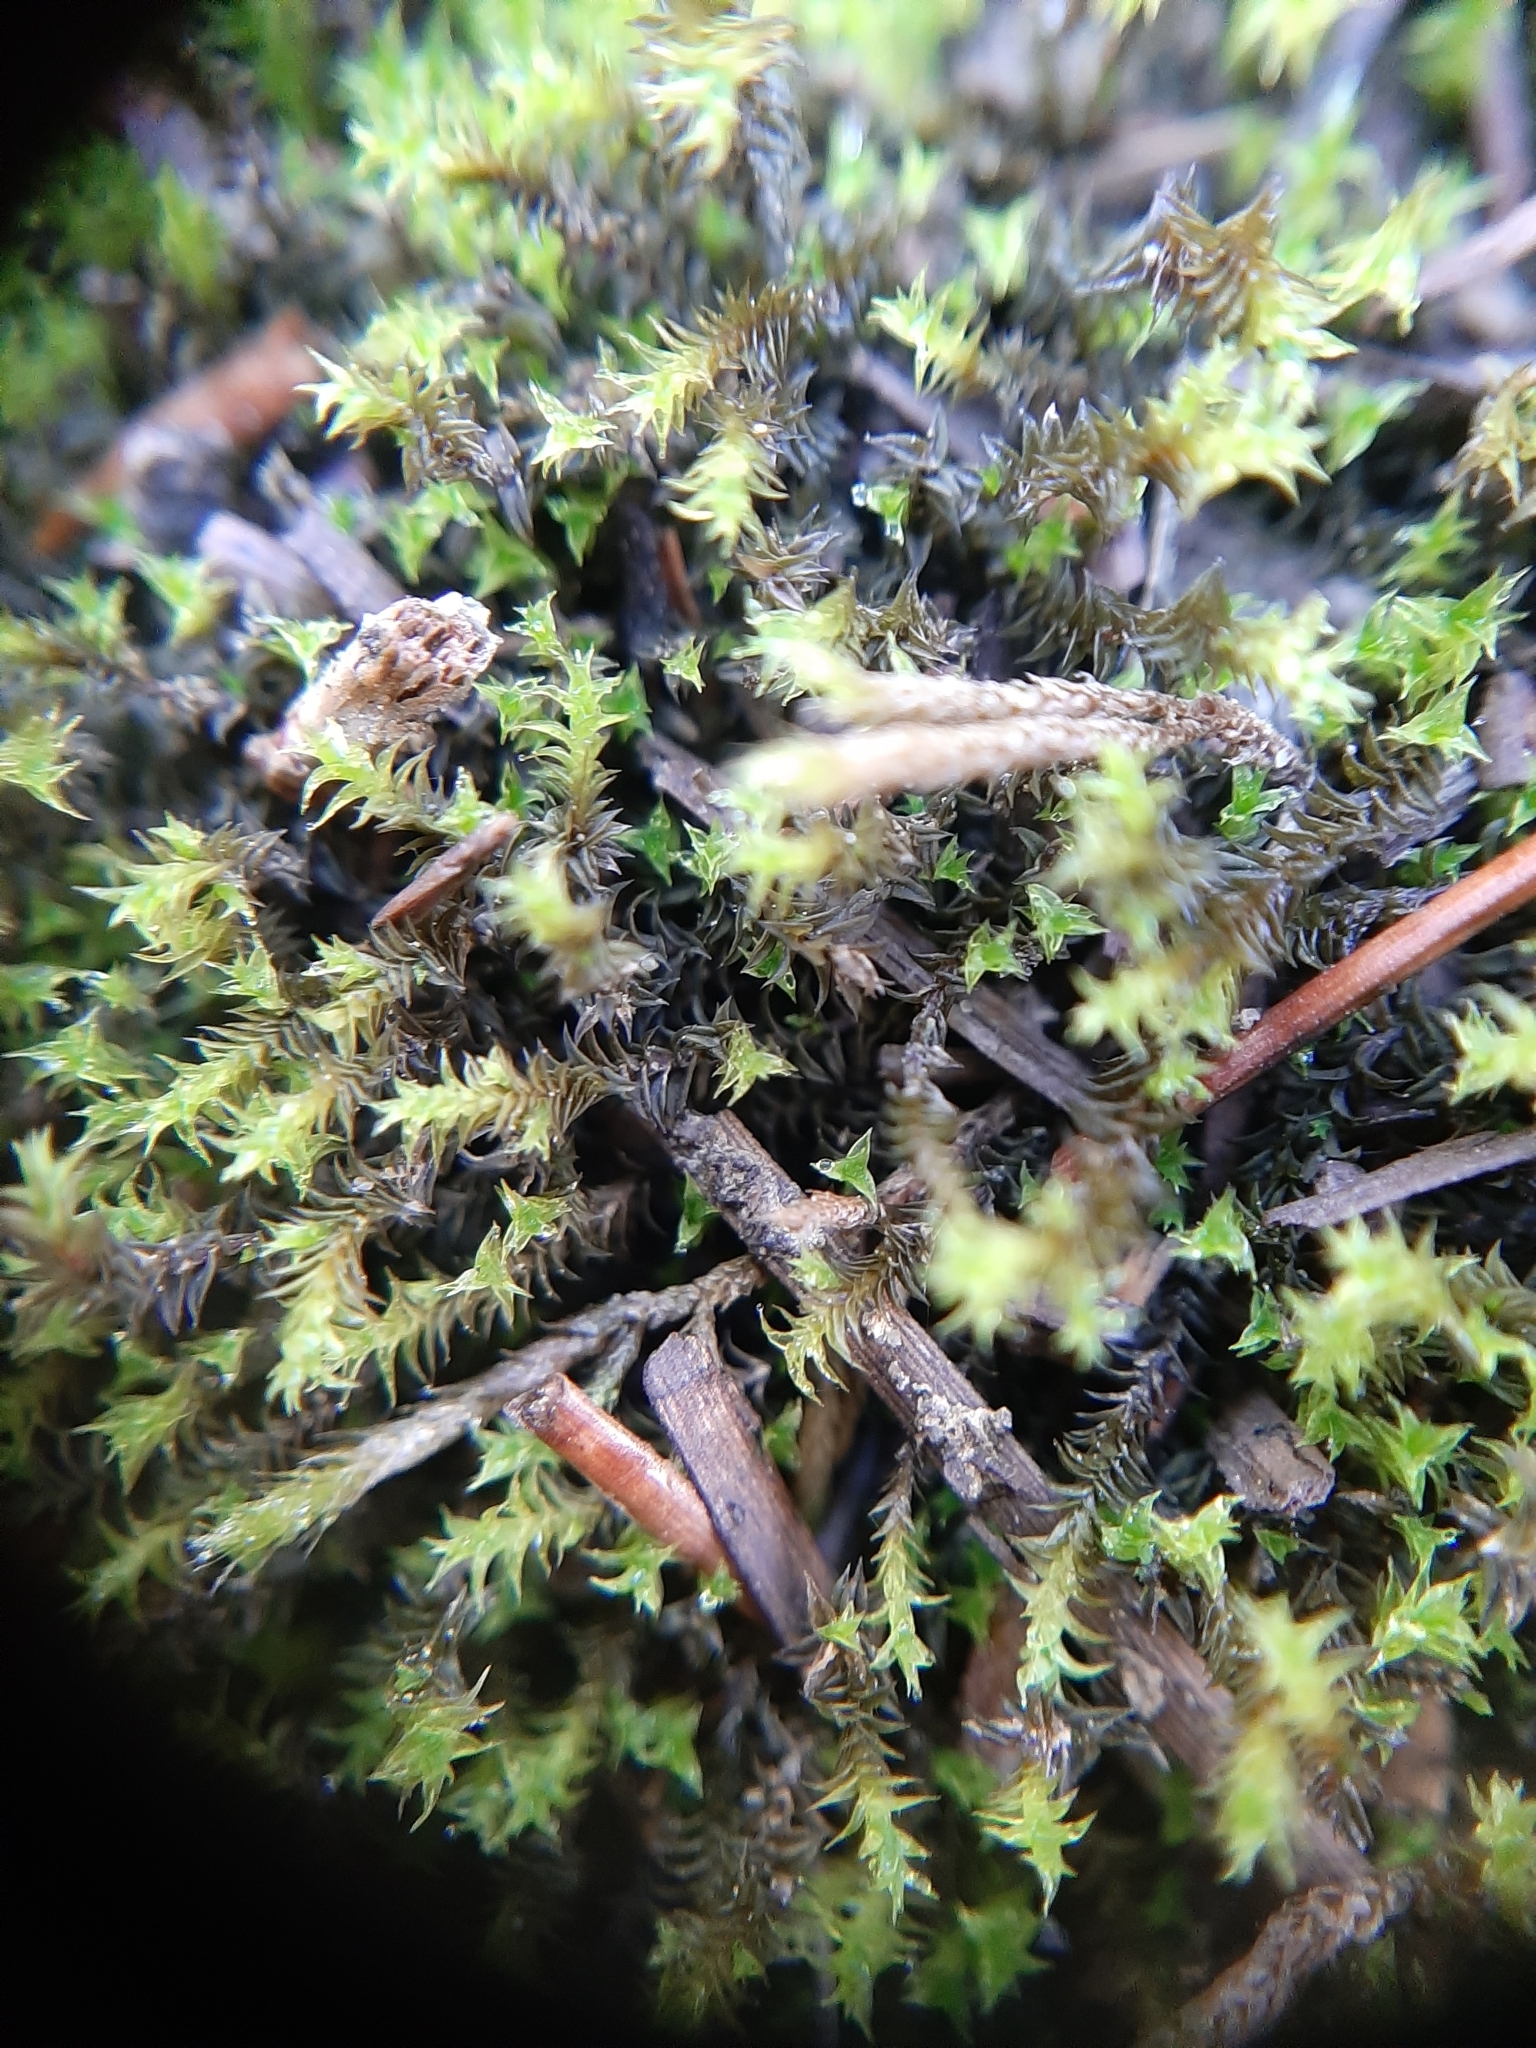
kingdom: Plantae
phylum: Bryophyta
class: Bryopsida
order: Pottiales
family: Pottiaceae
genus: Triquetrella
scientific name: Triquetrella papillata
